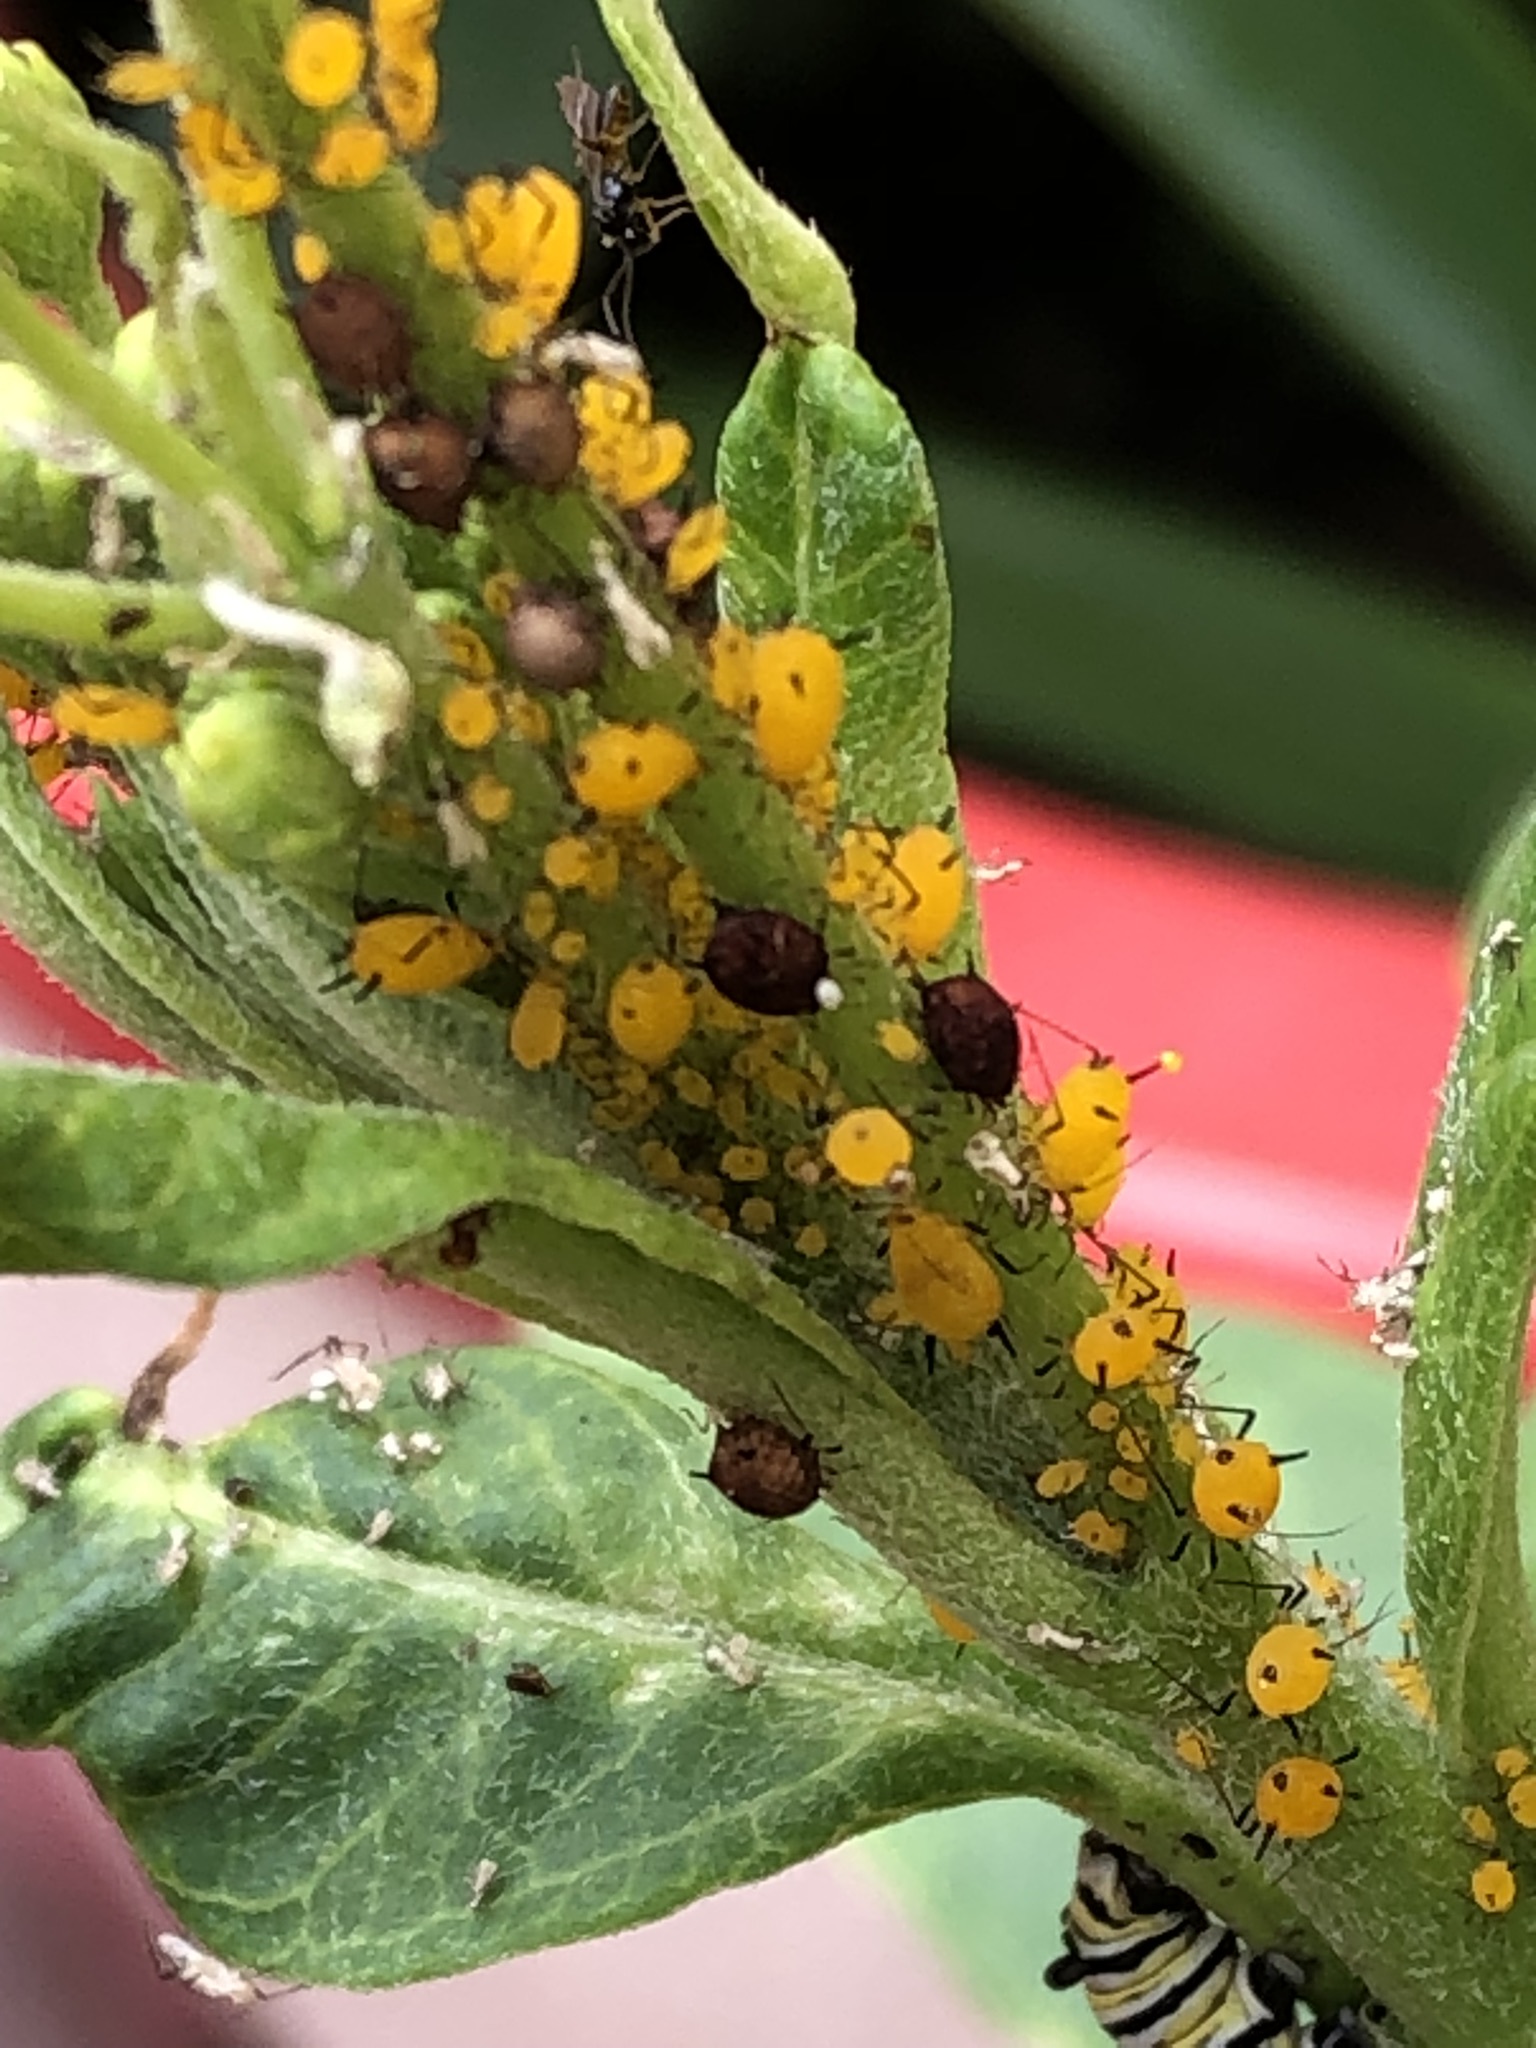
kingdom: Animalia
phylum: Arthropoda
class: Insecta
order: Hemiptera
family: Aphididae
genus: Aphis
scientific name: Aphis nerii
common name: Oleander aphid
